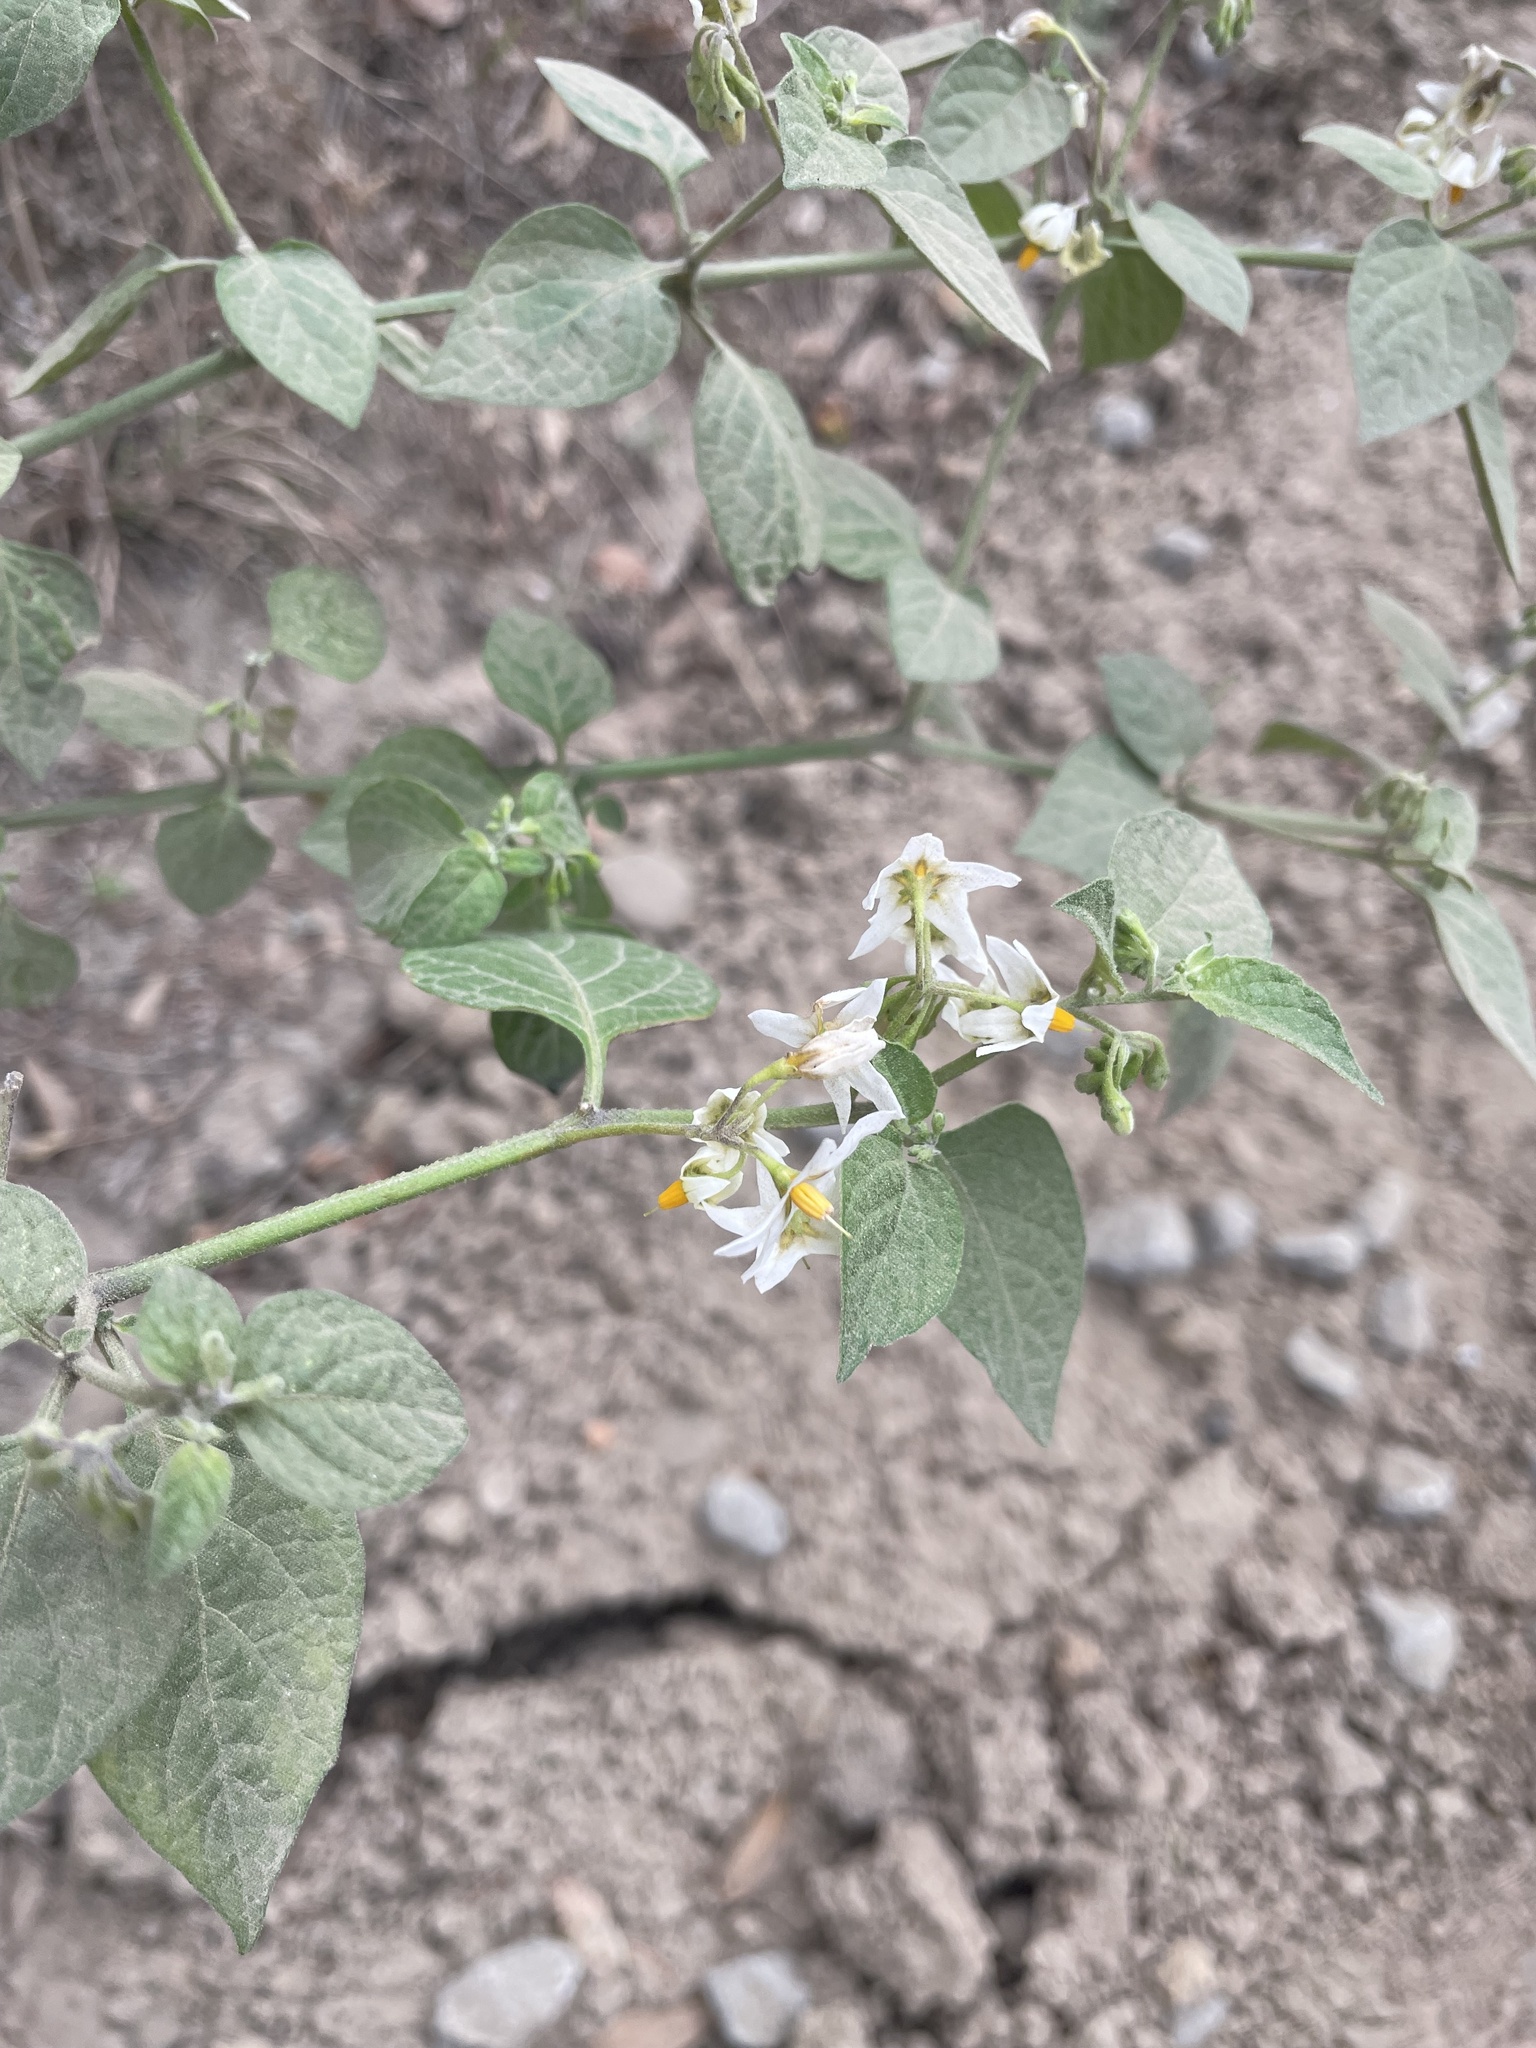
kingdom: Plantae
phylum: Tracheophyta
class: Magnoliopsida
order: Solanales
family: Solanaceae
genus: Solanum
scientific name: Solanum douglasii
